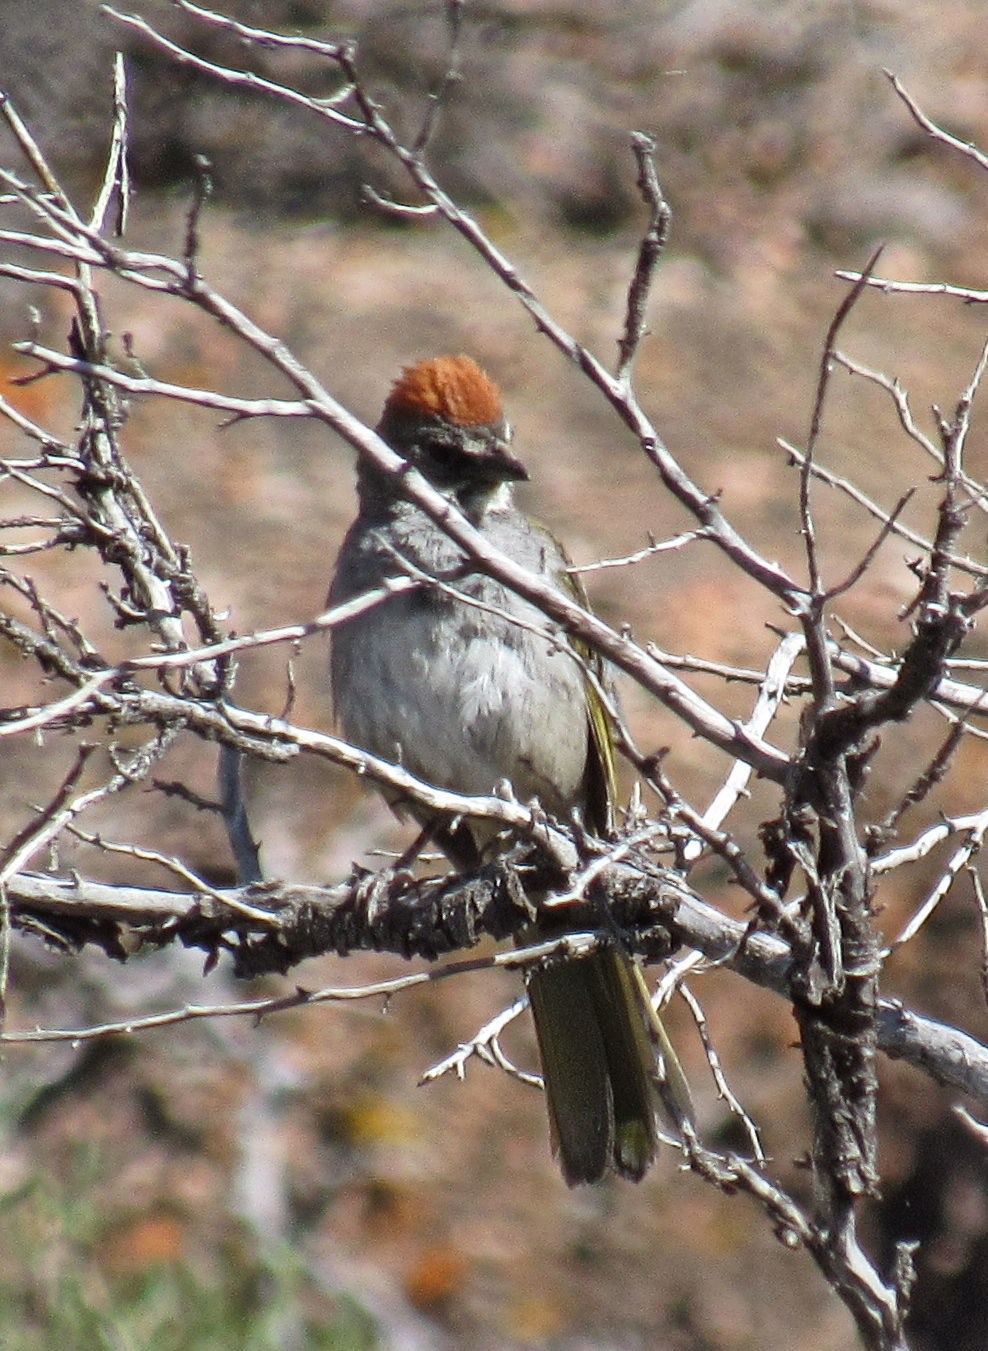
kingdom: Animalia
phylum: Chordata
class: Aves
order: Passeriformes
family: Passerellidae
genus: Pipilo
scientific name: Pipilo chlorurus
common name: Green-tailed towhee
